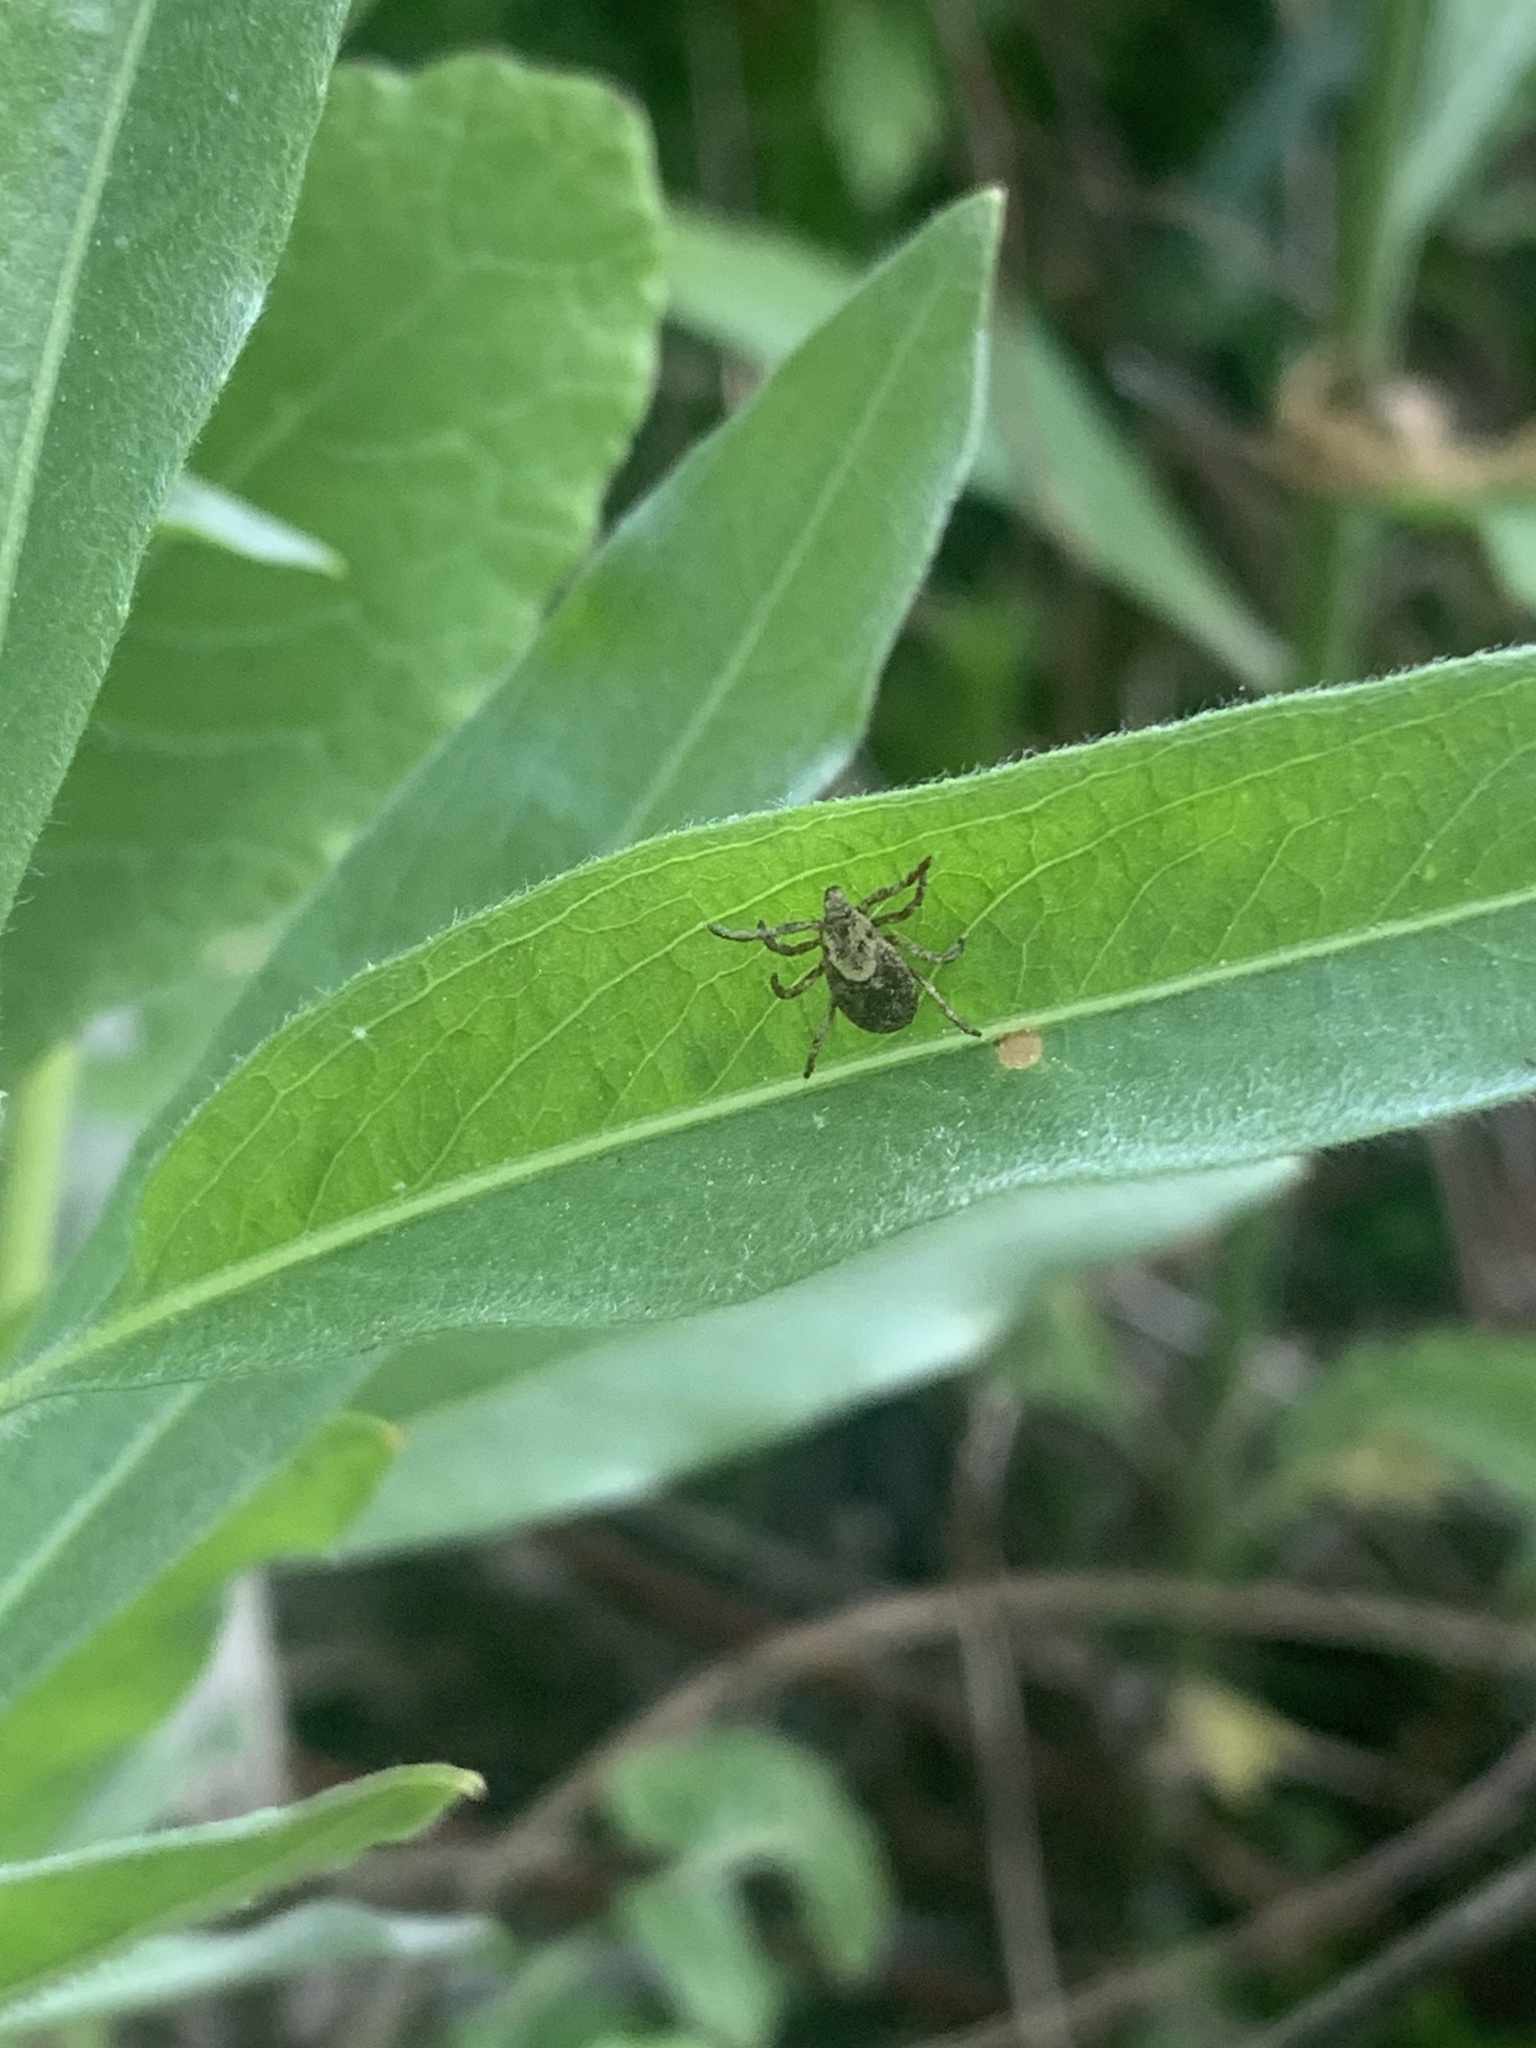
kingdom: Animalia
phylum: Arthropoda
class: Arachnida
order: Ixodida
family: Ixodidae
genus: Dermacentor
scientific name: Dermacentor occidentalis
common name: Net tick
